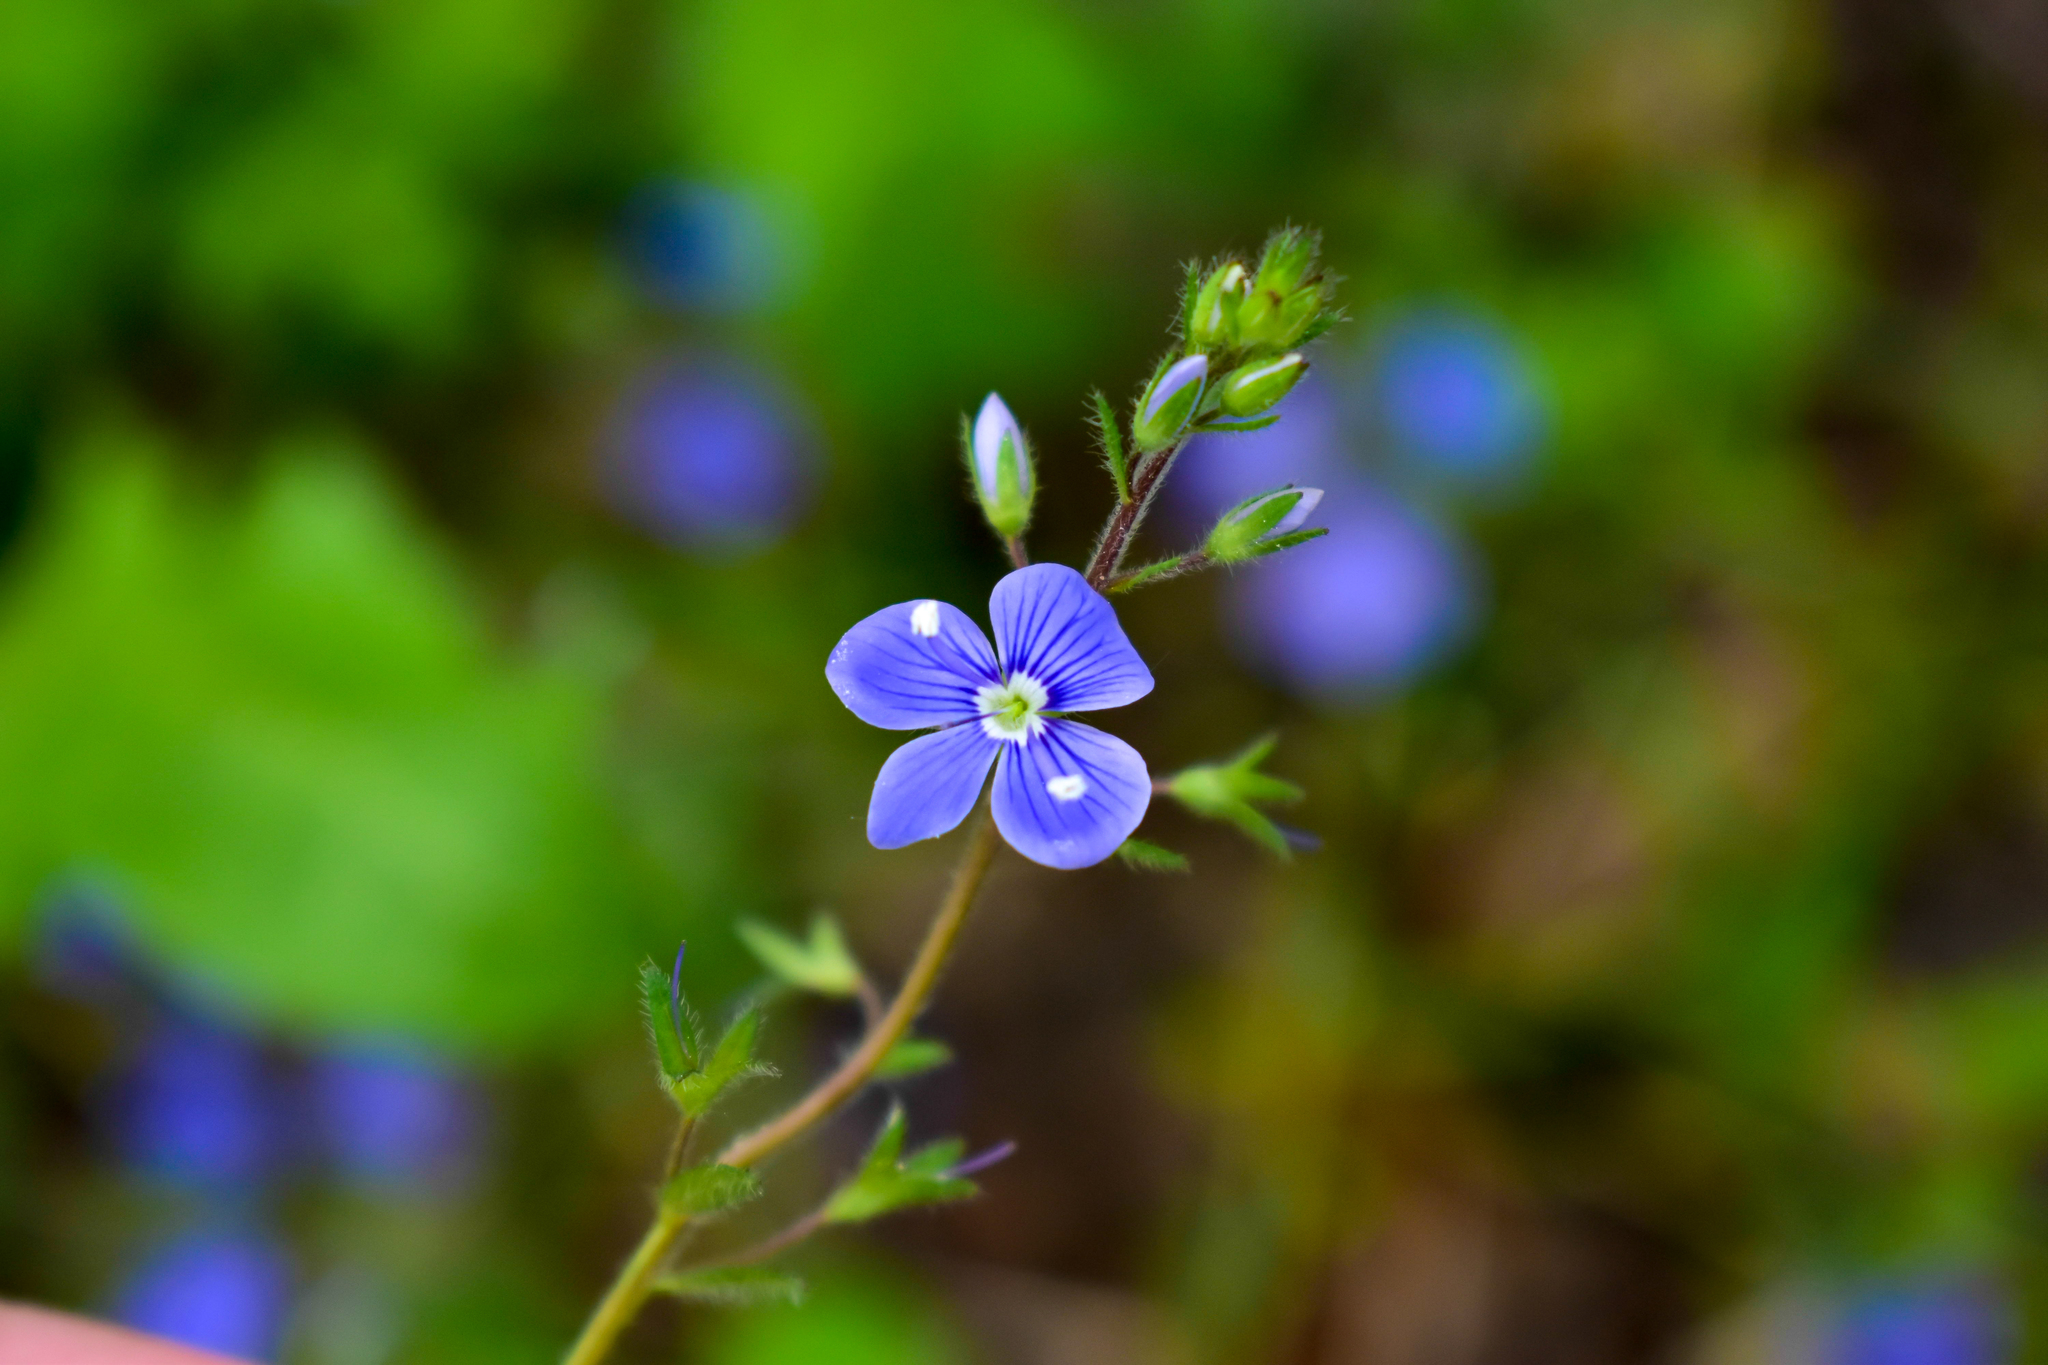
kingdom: Plantae
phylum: Tracheophyta
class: Magnoliopsida
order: Lamiales
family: Plantaginaceae
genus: Veronica
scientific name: Veronica chamaedrys
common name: Germander speedwell
